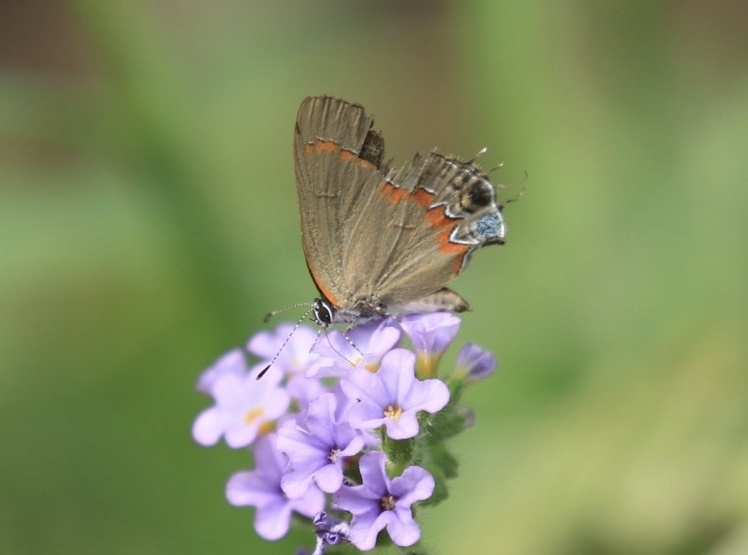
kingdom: Animalia
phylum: Arthropoda
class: Insecta
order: Lepidoptera
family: Lycaenidae
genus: Calycopis
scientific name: Calycopis cecrops
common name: Red-banded hairstreak
